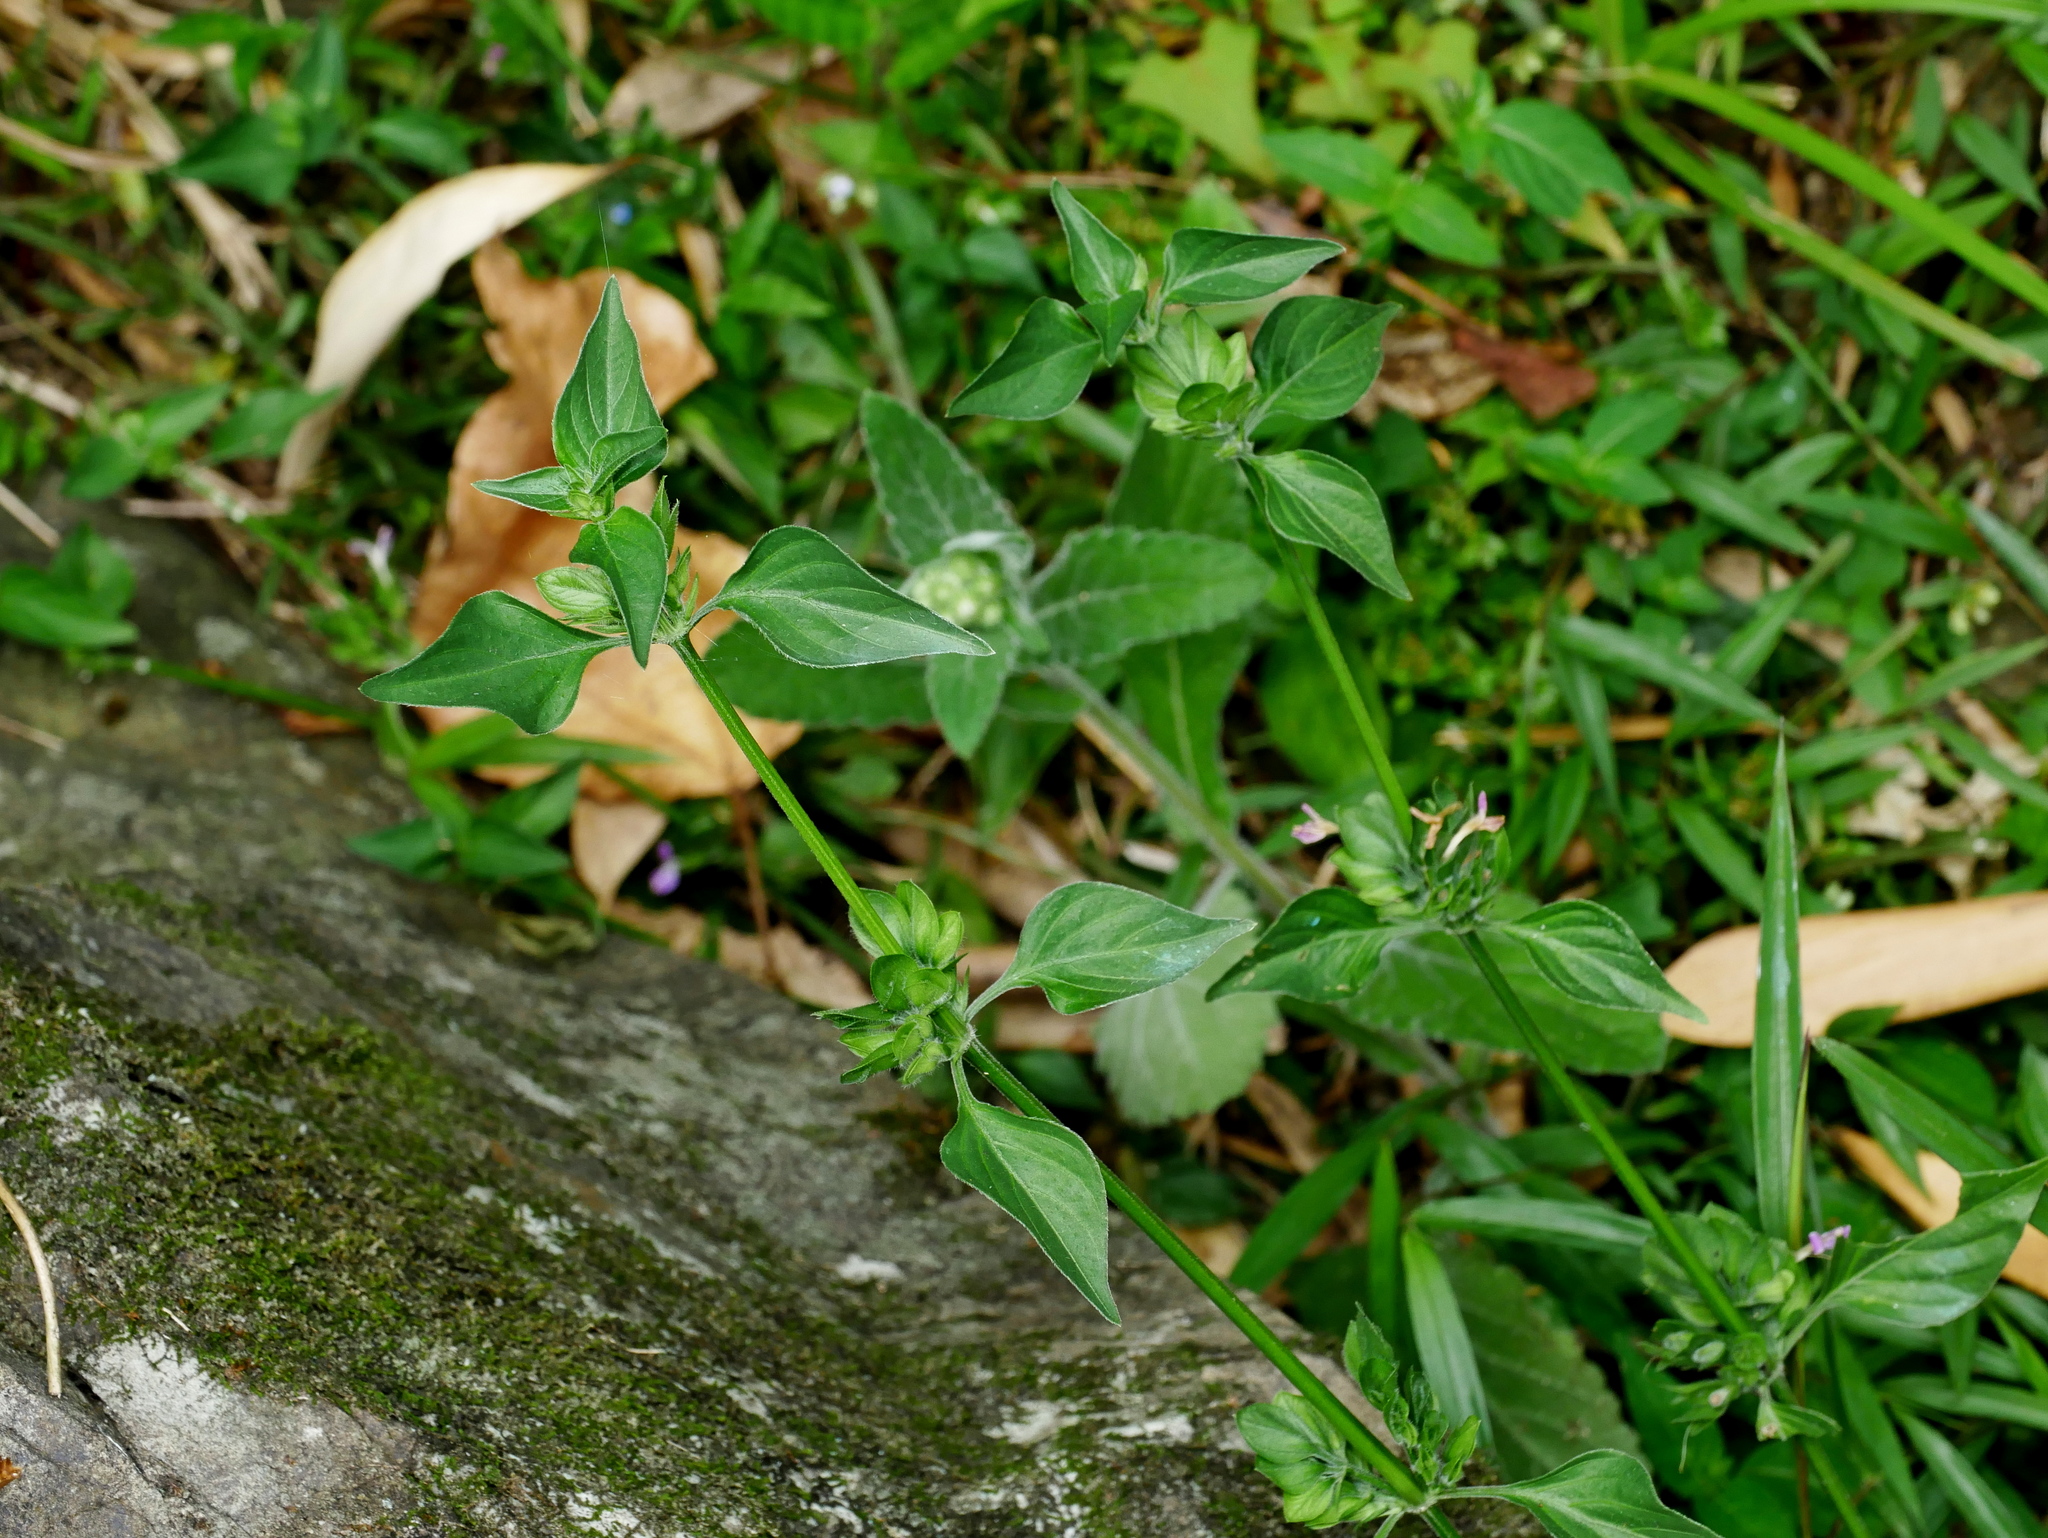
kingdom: Plantae
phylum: Tracheophyta
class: Magnoliopsida
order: Lamiales
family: Acanthaceae
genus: Dicliptera
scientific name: Dicliptera chinensis
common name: Chinese foldwing
